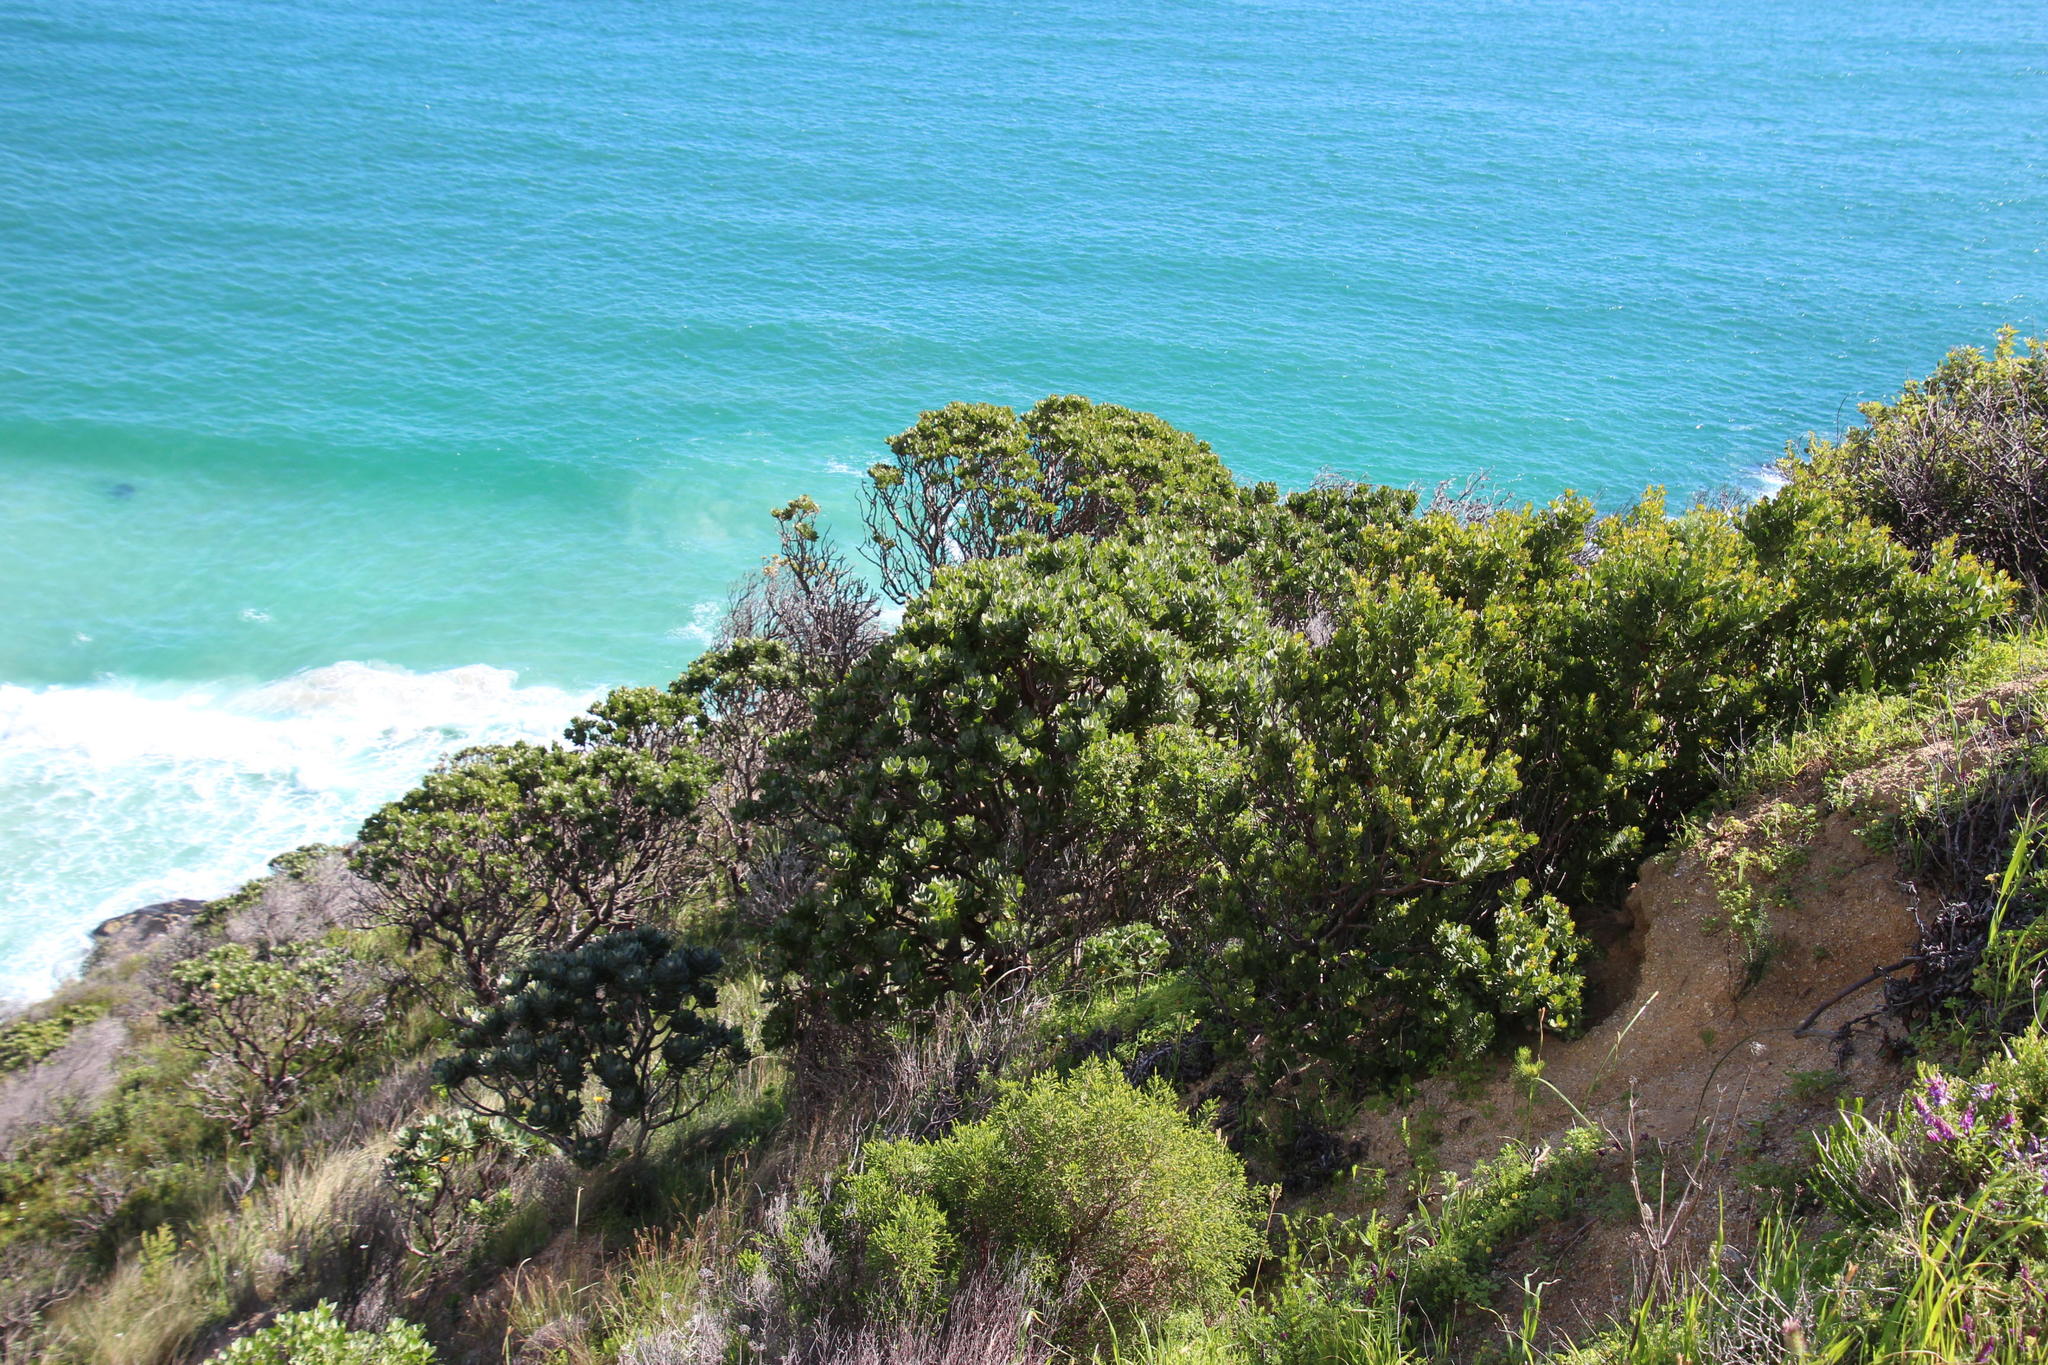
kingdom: Plantae
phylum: Tracheophyta
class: Magnoliopsida
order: Proteales
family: Proteaceae
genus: Leucospermum
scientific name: Leucospermum conocarpodendron
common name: Tree pincushion
